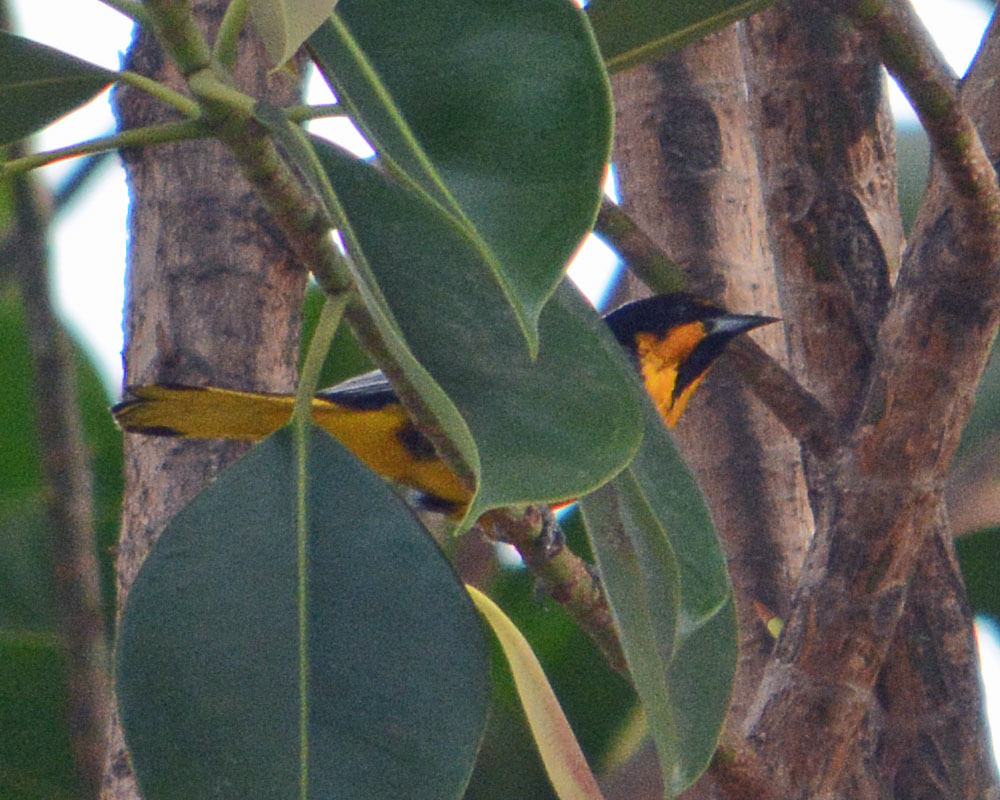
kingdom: Animalia
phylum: Chordata
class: Aves
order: Passeriformes
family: Icteridae
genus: Icterus
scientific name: Icterus abeillei
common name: Black-backed oriole
